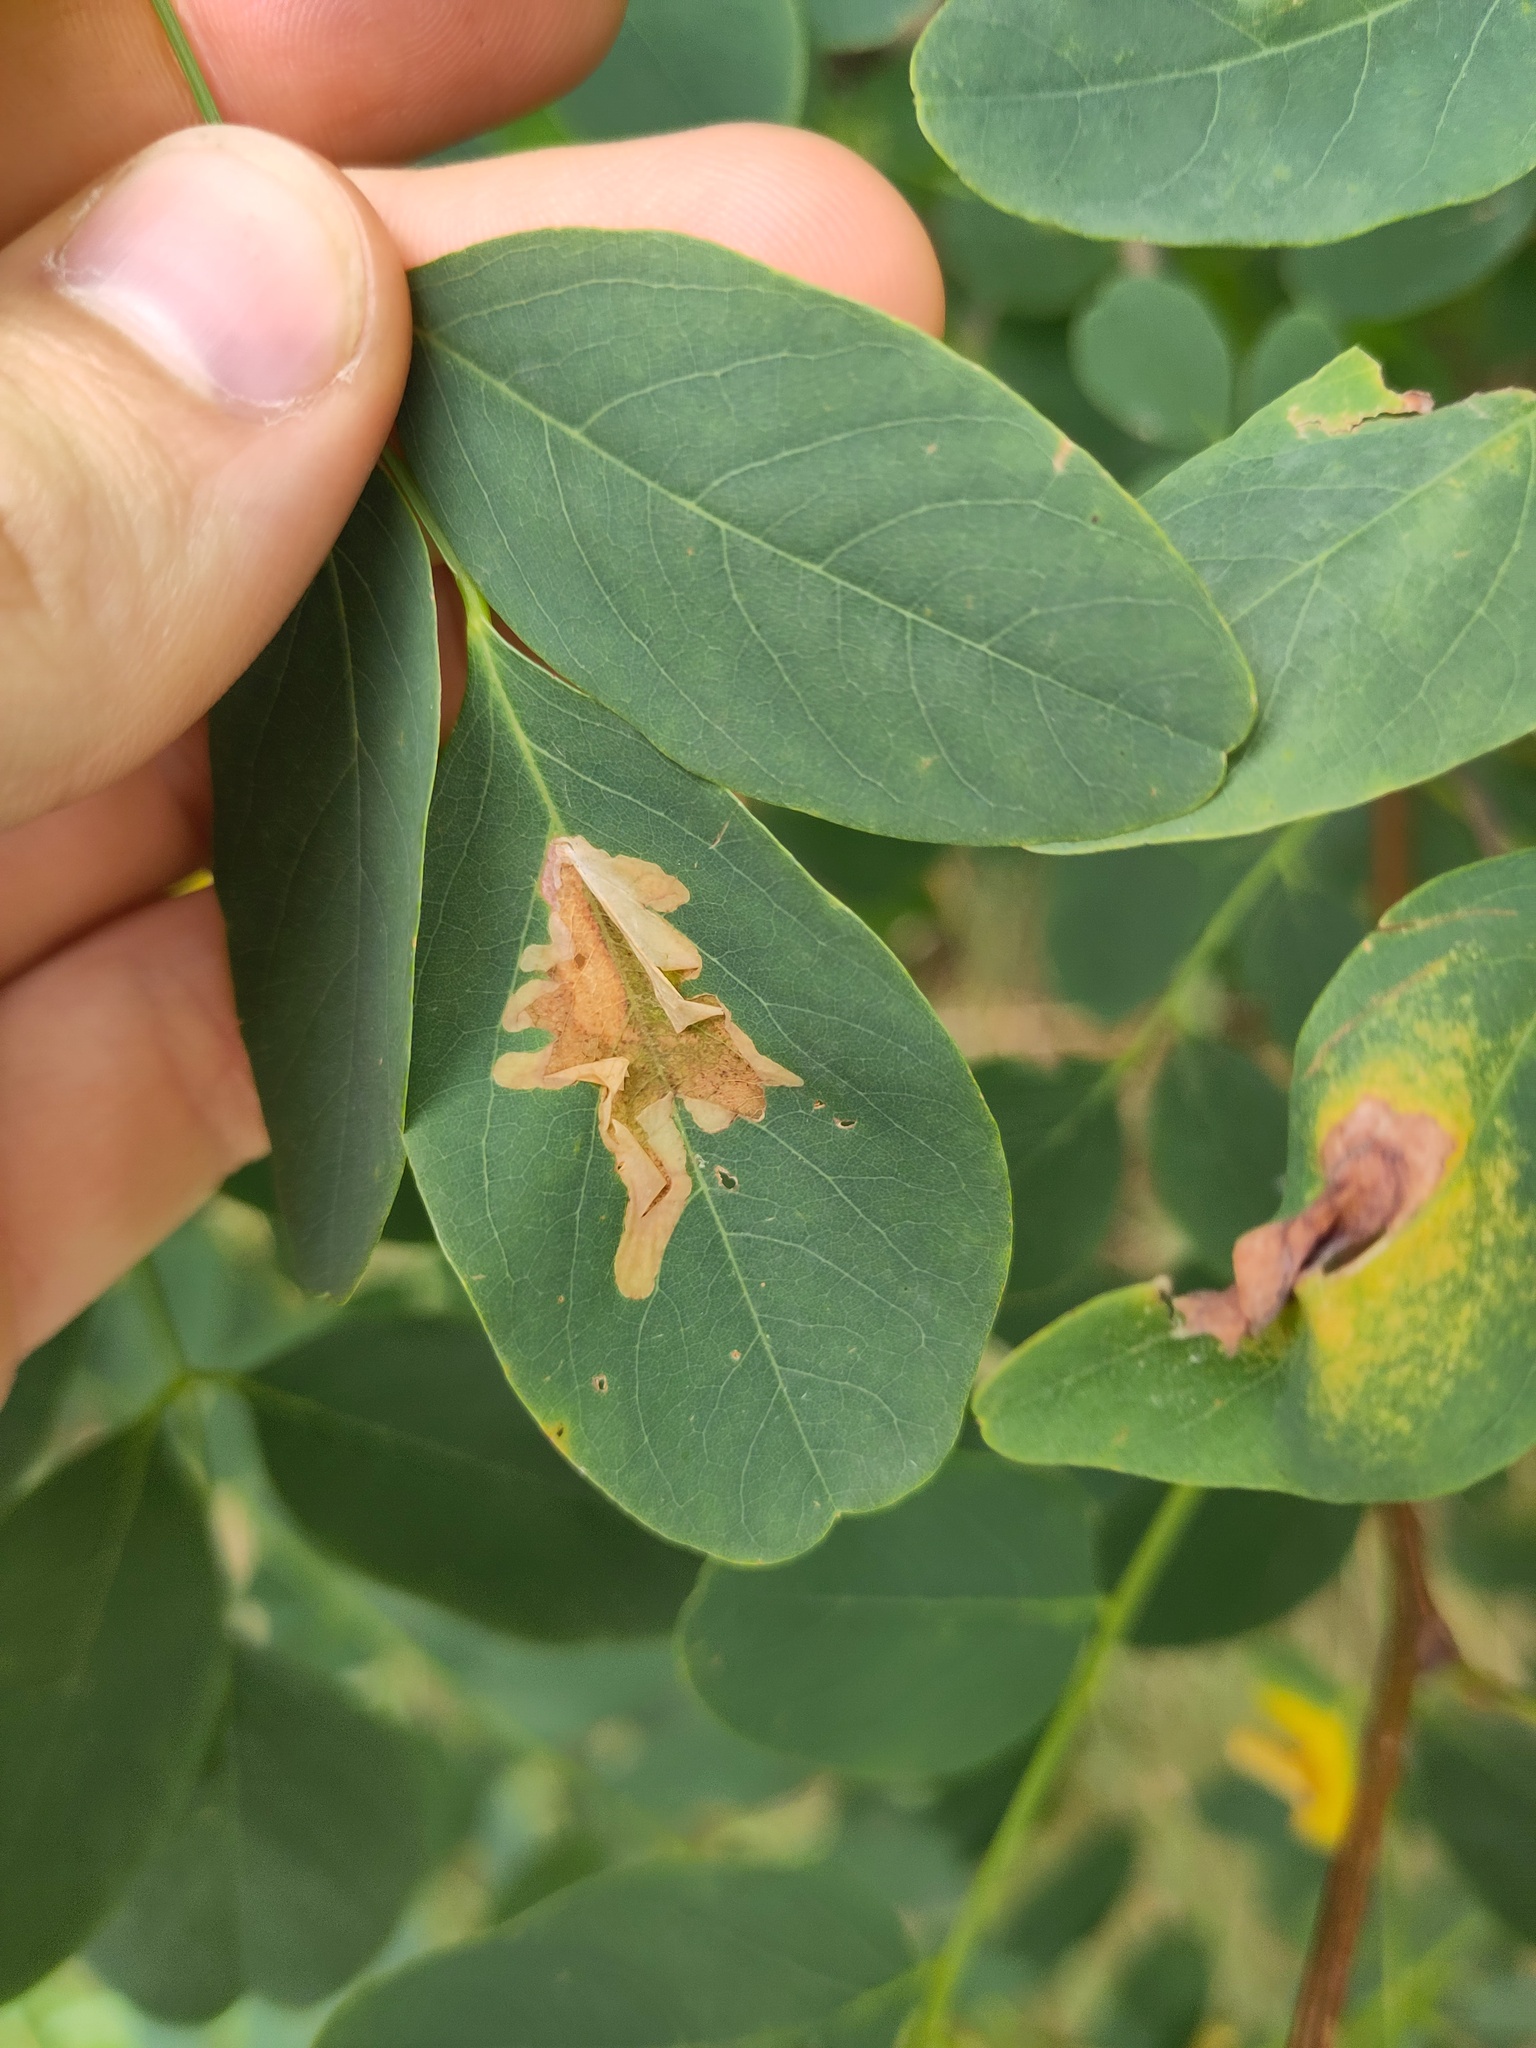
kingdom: Animalia
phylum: Arthropoda
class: Insecta
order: Lepidoptera
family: Gracillariidae
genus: Parectopa
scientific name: Parectopa robiniella
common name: Locust digitate leafminer
